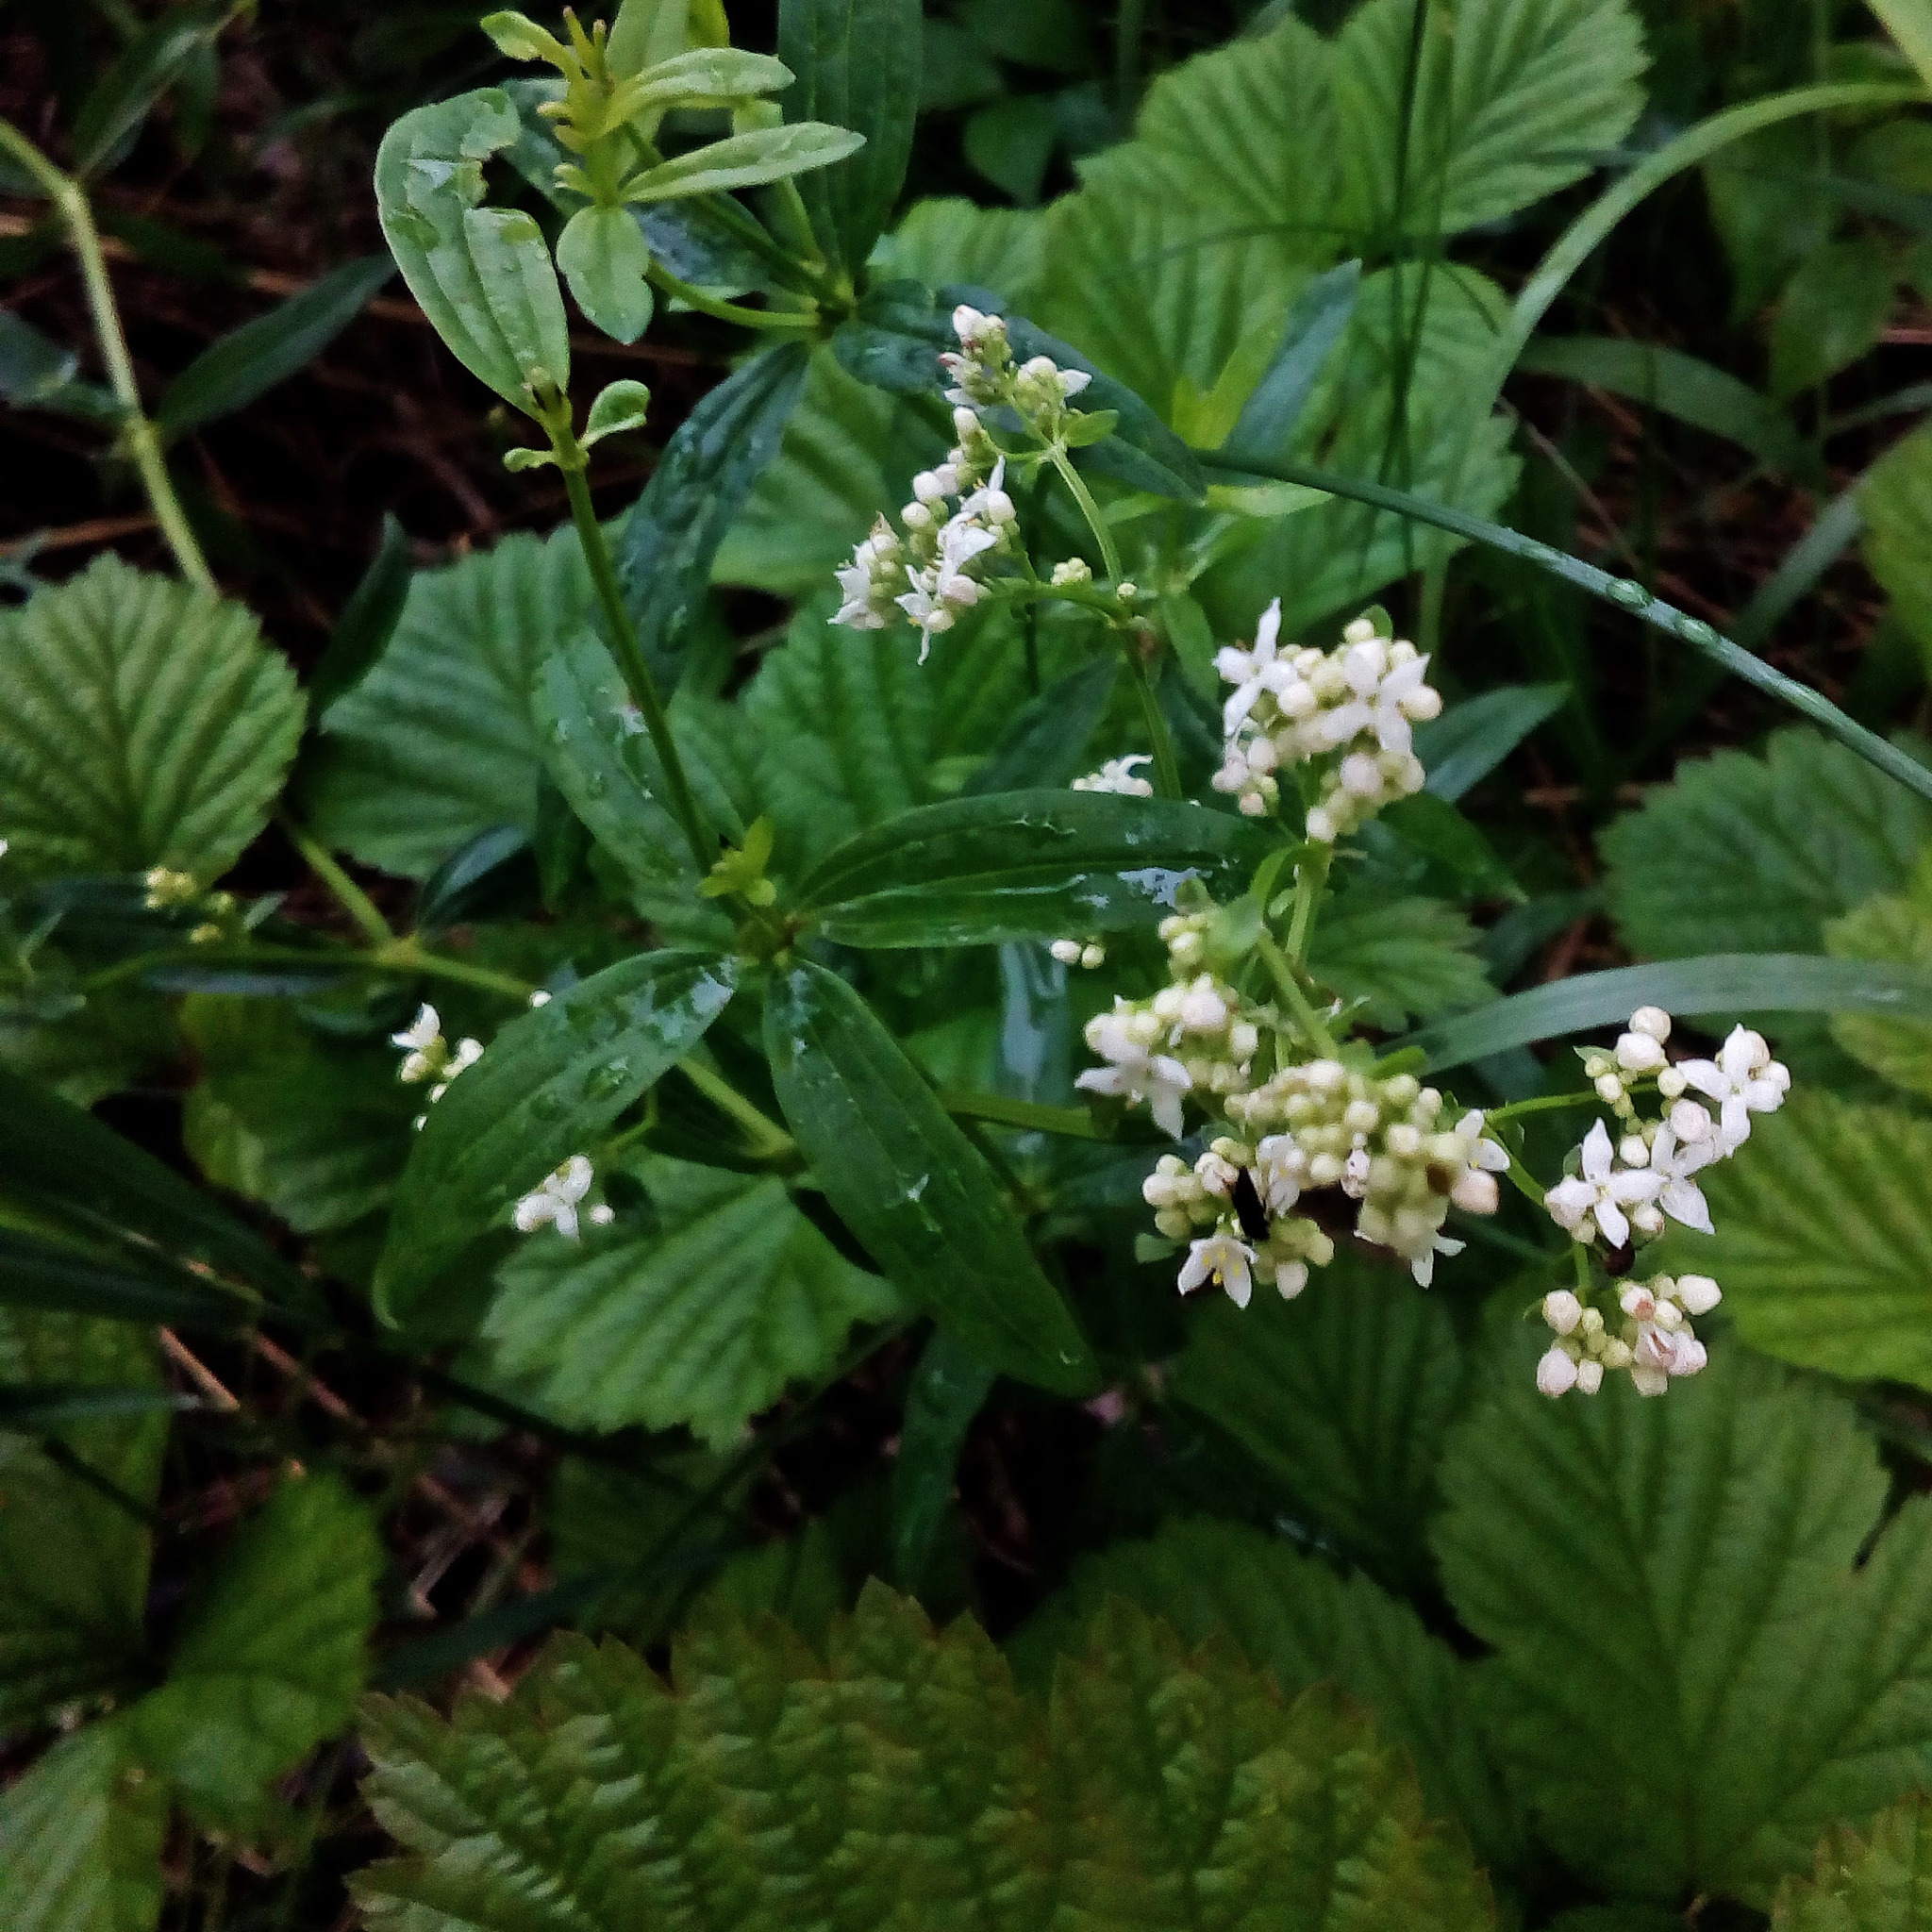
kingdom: Plantae
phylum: Tracheophyta
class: Magnoliopsida
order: Gentianales
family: Rubiaceae
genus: Galium
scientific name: Galium boreale
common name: Northern bedstraw
